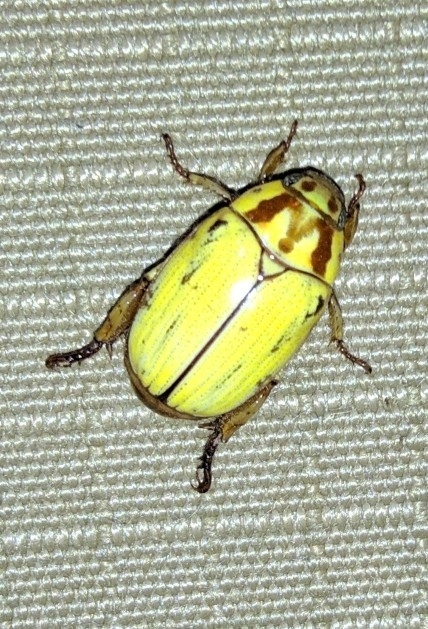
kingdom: Animalia
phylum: Arthropoda
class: Insecta
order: Coleoptera
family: Scarabaeidae
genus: Mimela
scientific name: Mimela inscripta
